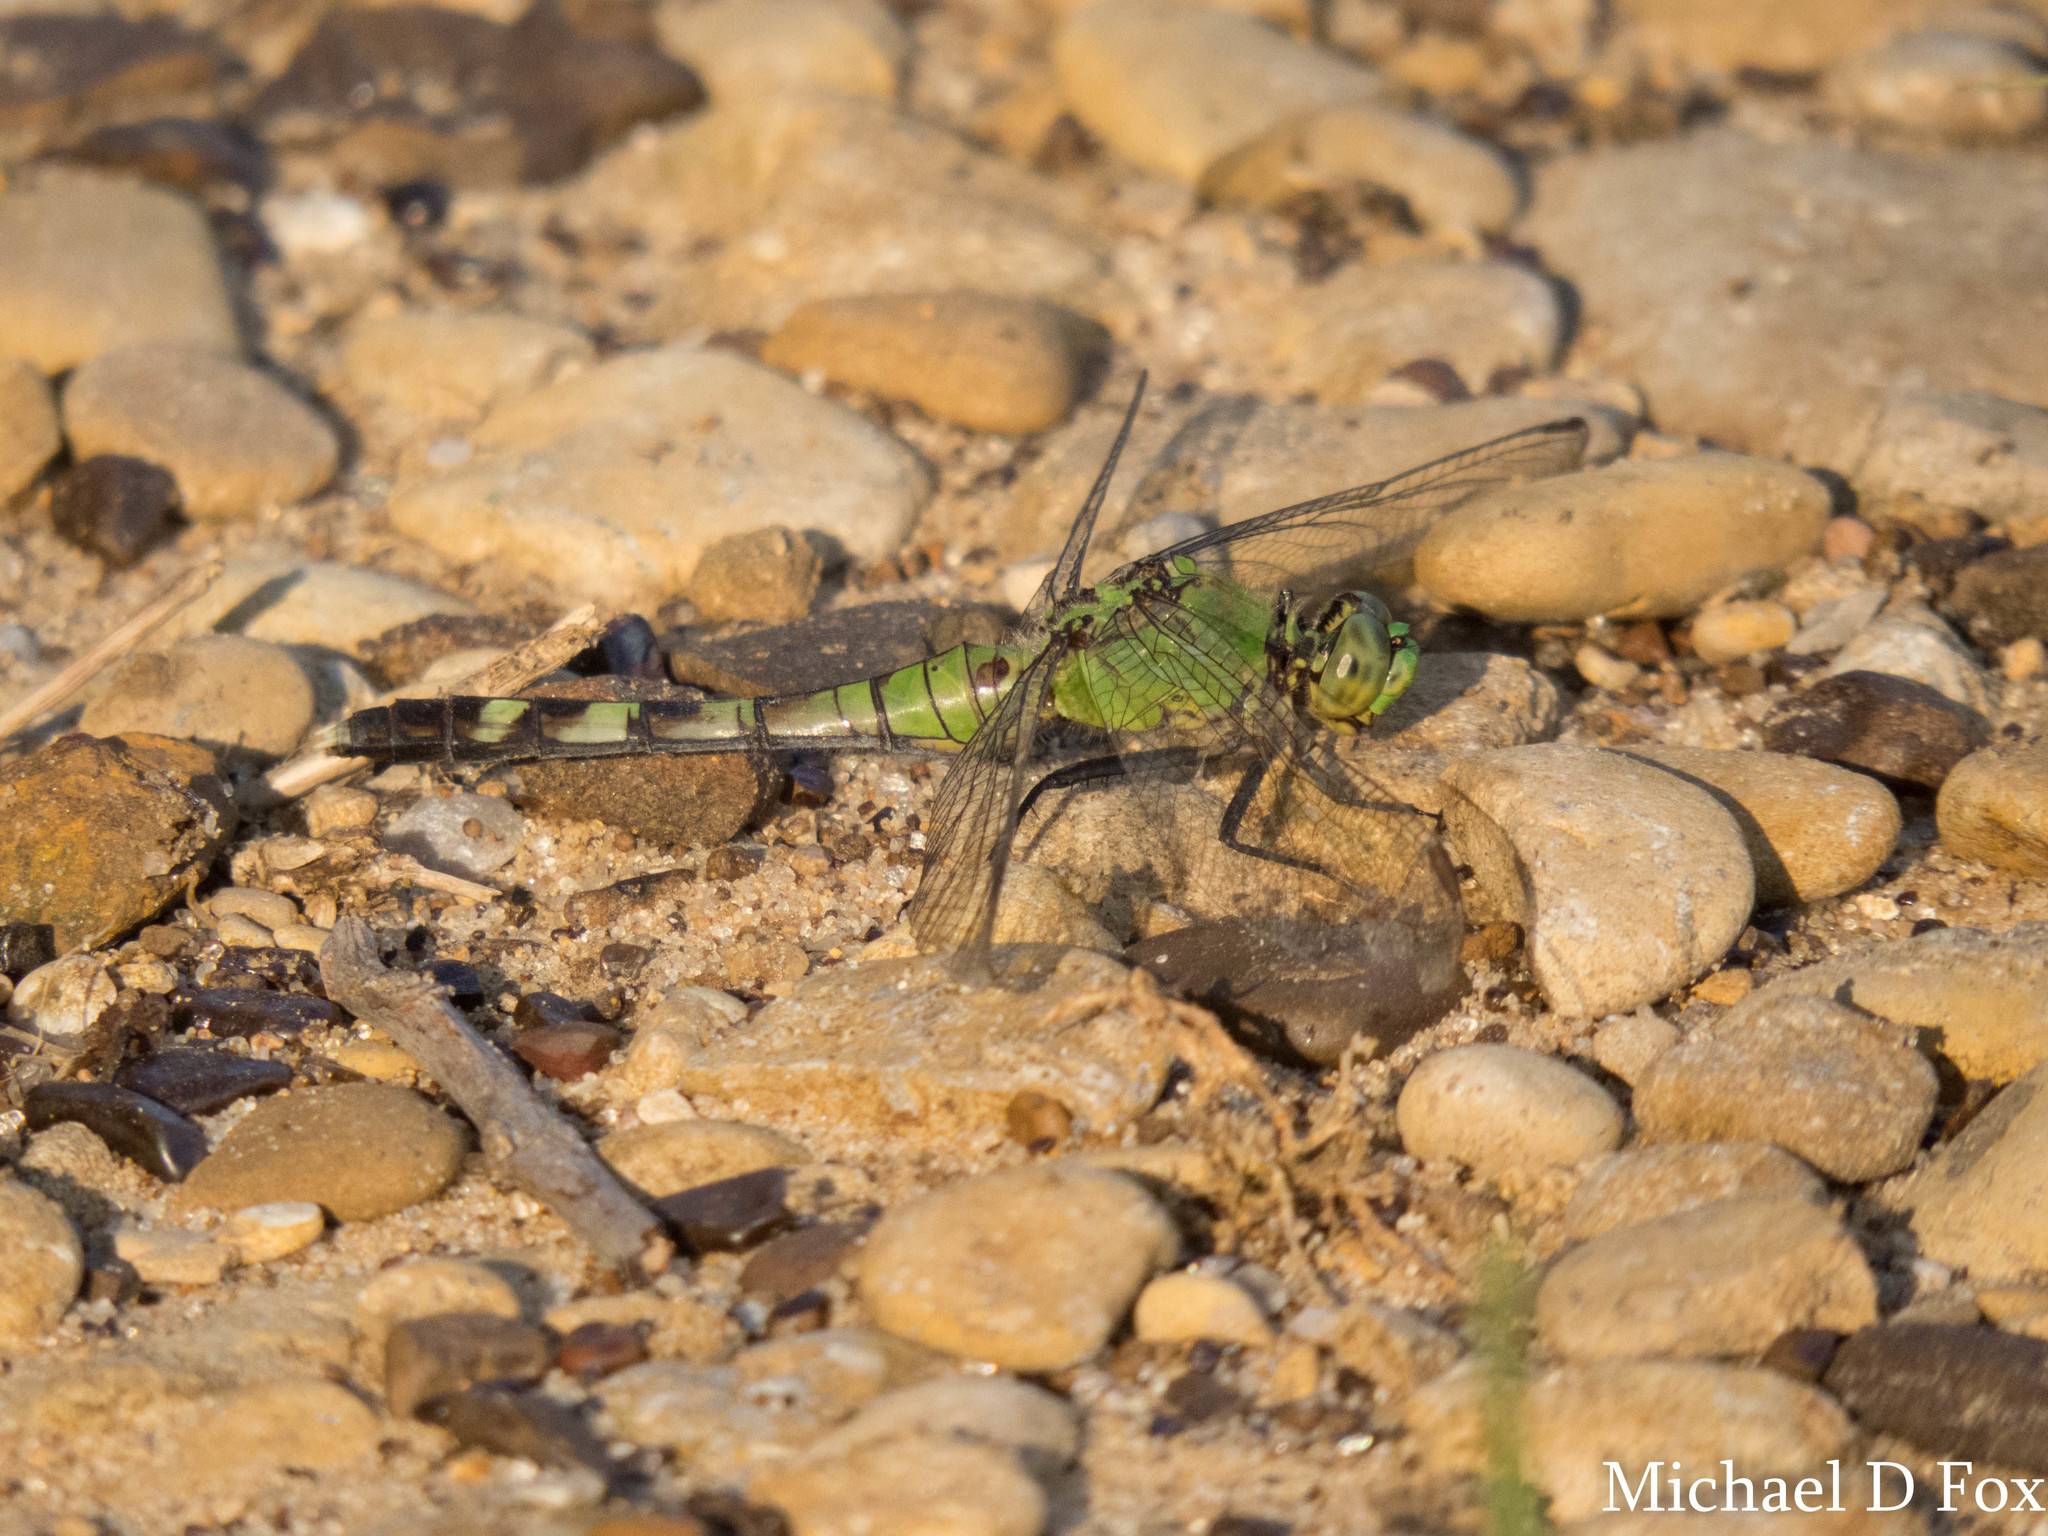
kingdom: Animalia
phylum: Arthropoda
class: Insecta
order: Odonata
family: Libellulidae
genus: Erythemis
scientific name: Erythemis simplicicollis
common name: Eastern pondhawk
